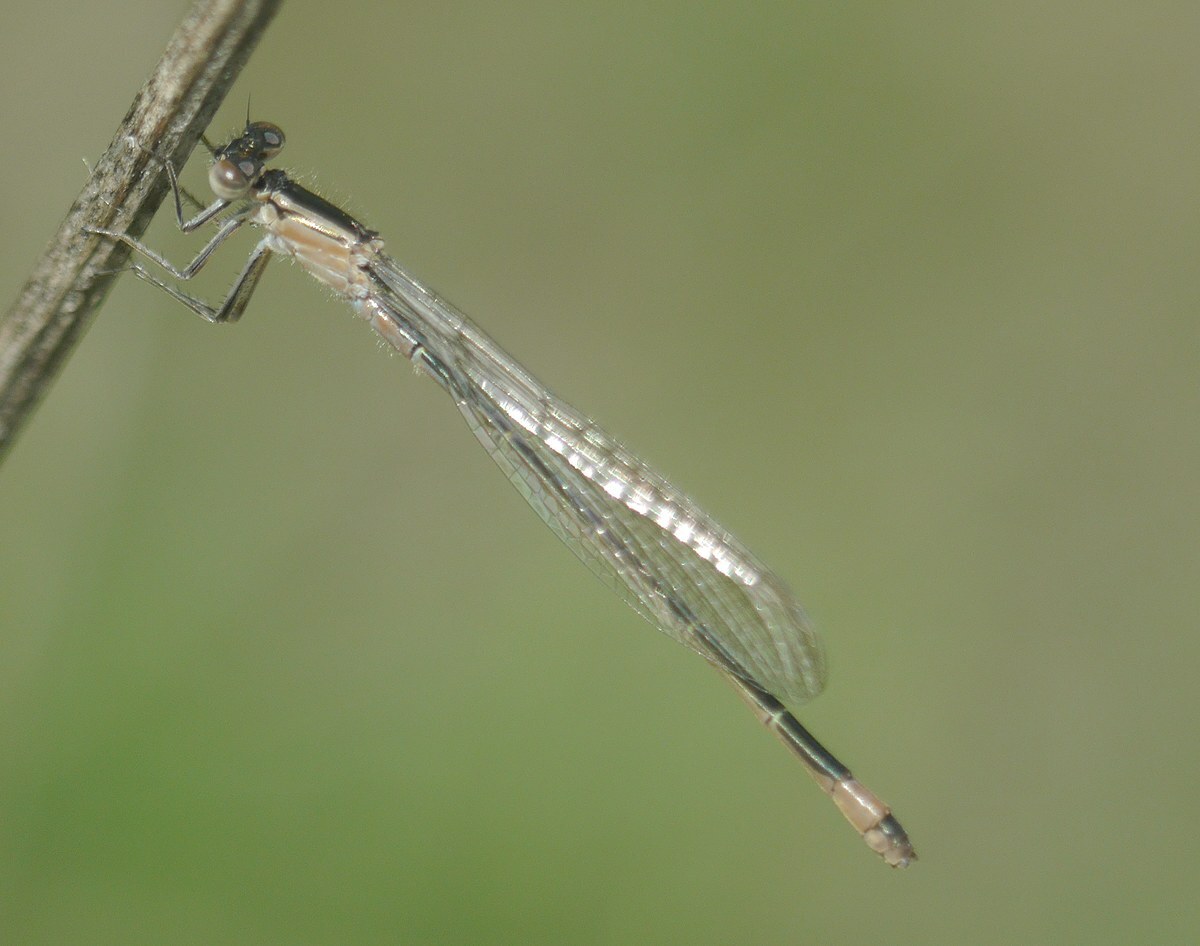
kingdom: Animalia
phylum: Arthropoda
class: Insecta
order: Odonata
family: Coenagrionidae
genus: Ischnura
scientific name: Ischnura elegans
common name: Blue-tailed damselfly
